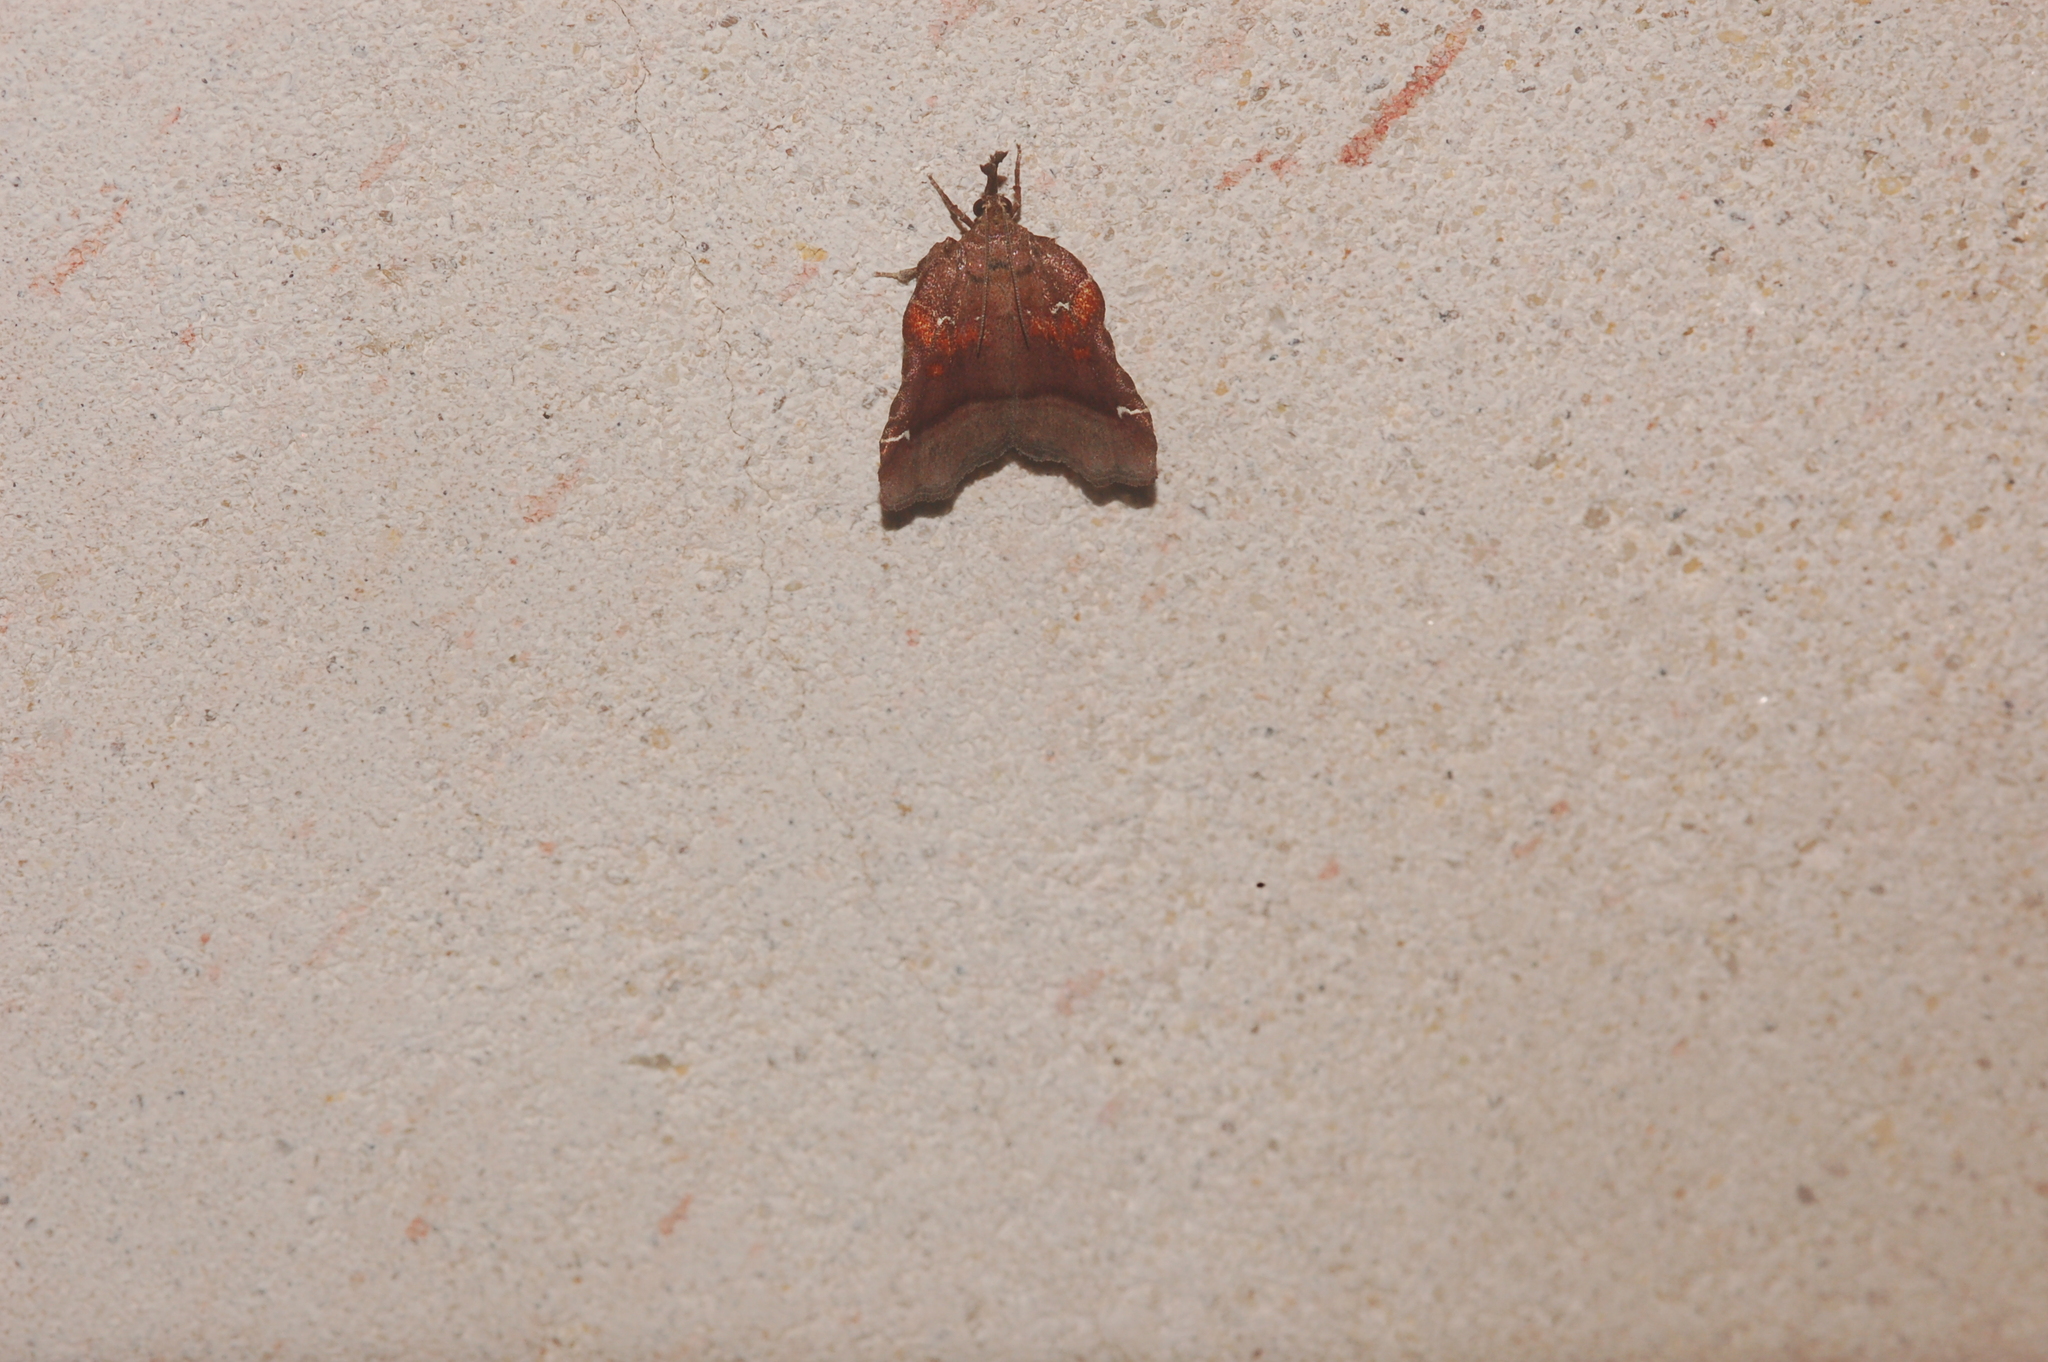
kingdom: Animalia
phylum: Arthropoda
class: Insecta
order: Lepidoptera
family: Pyralidae
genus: Clydonopteron
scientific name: Clydonopteron sacculana
